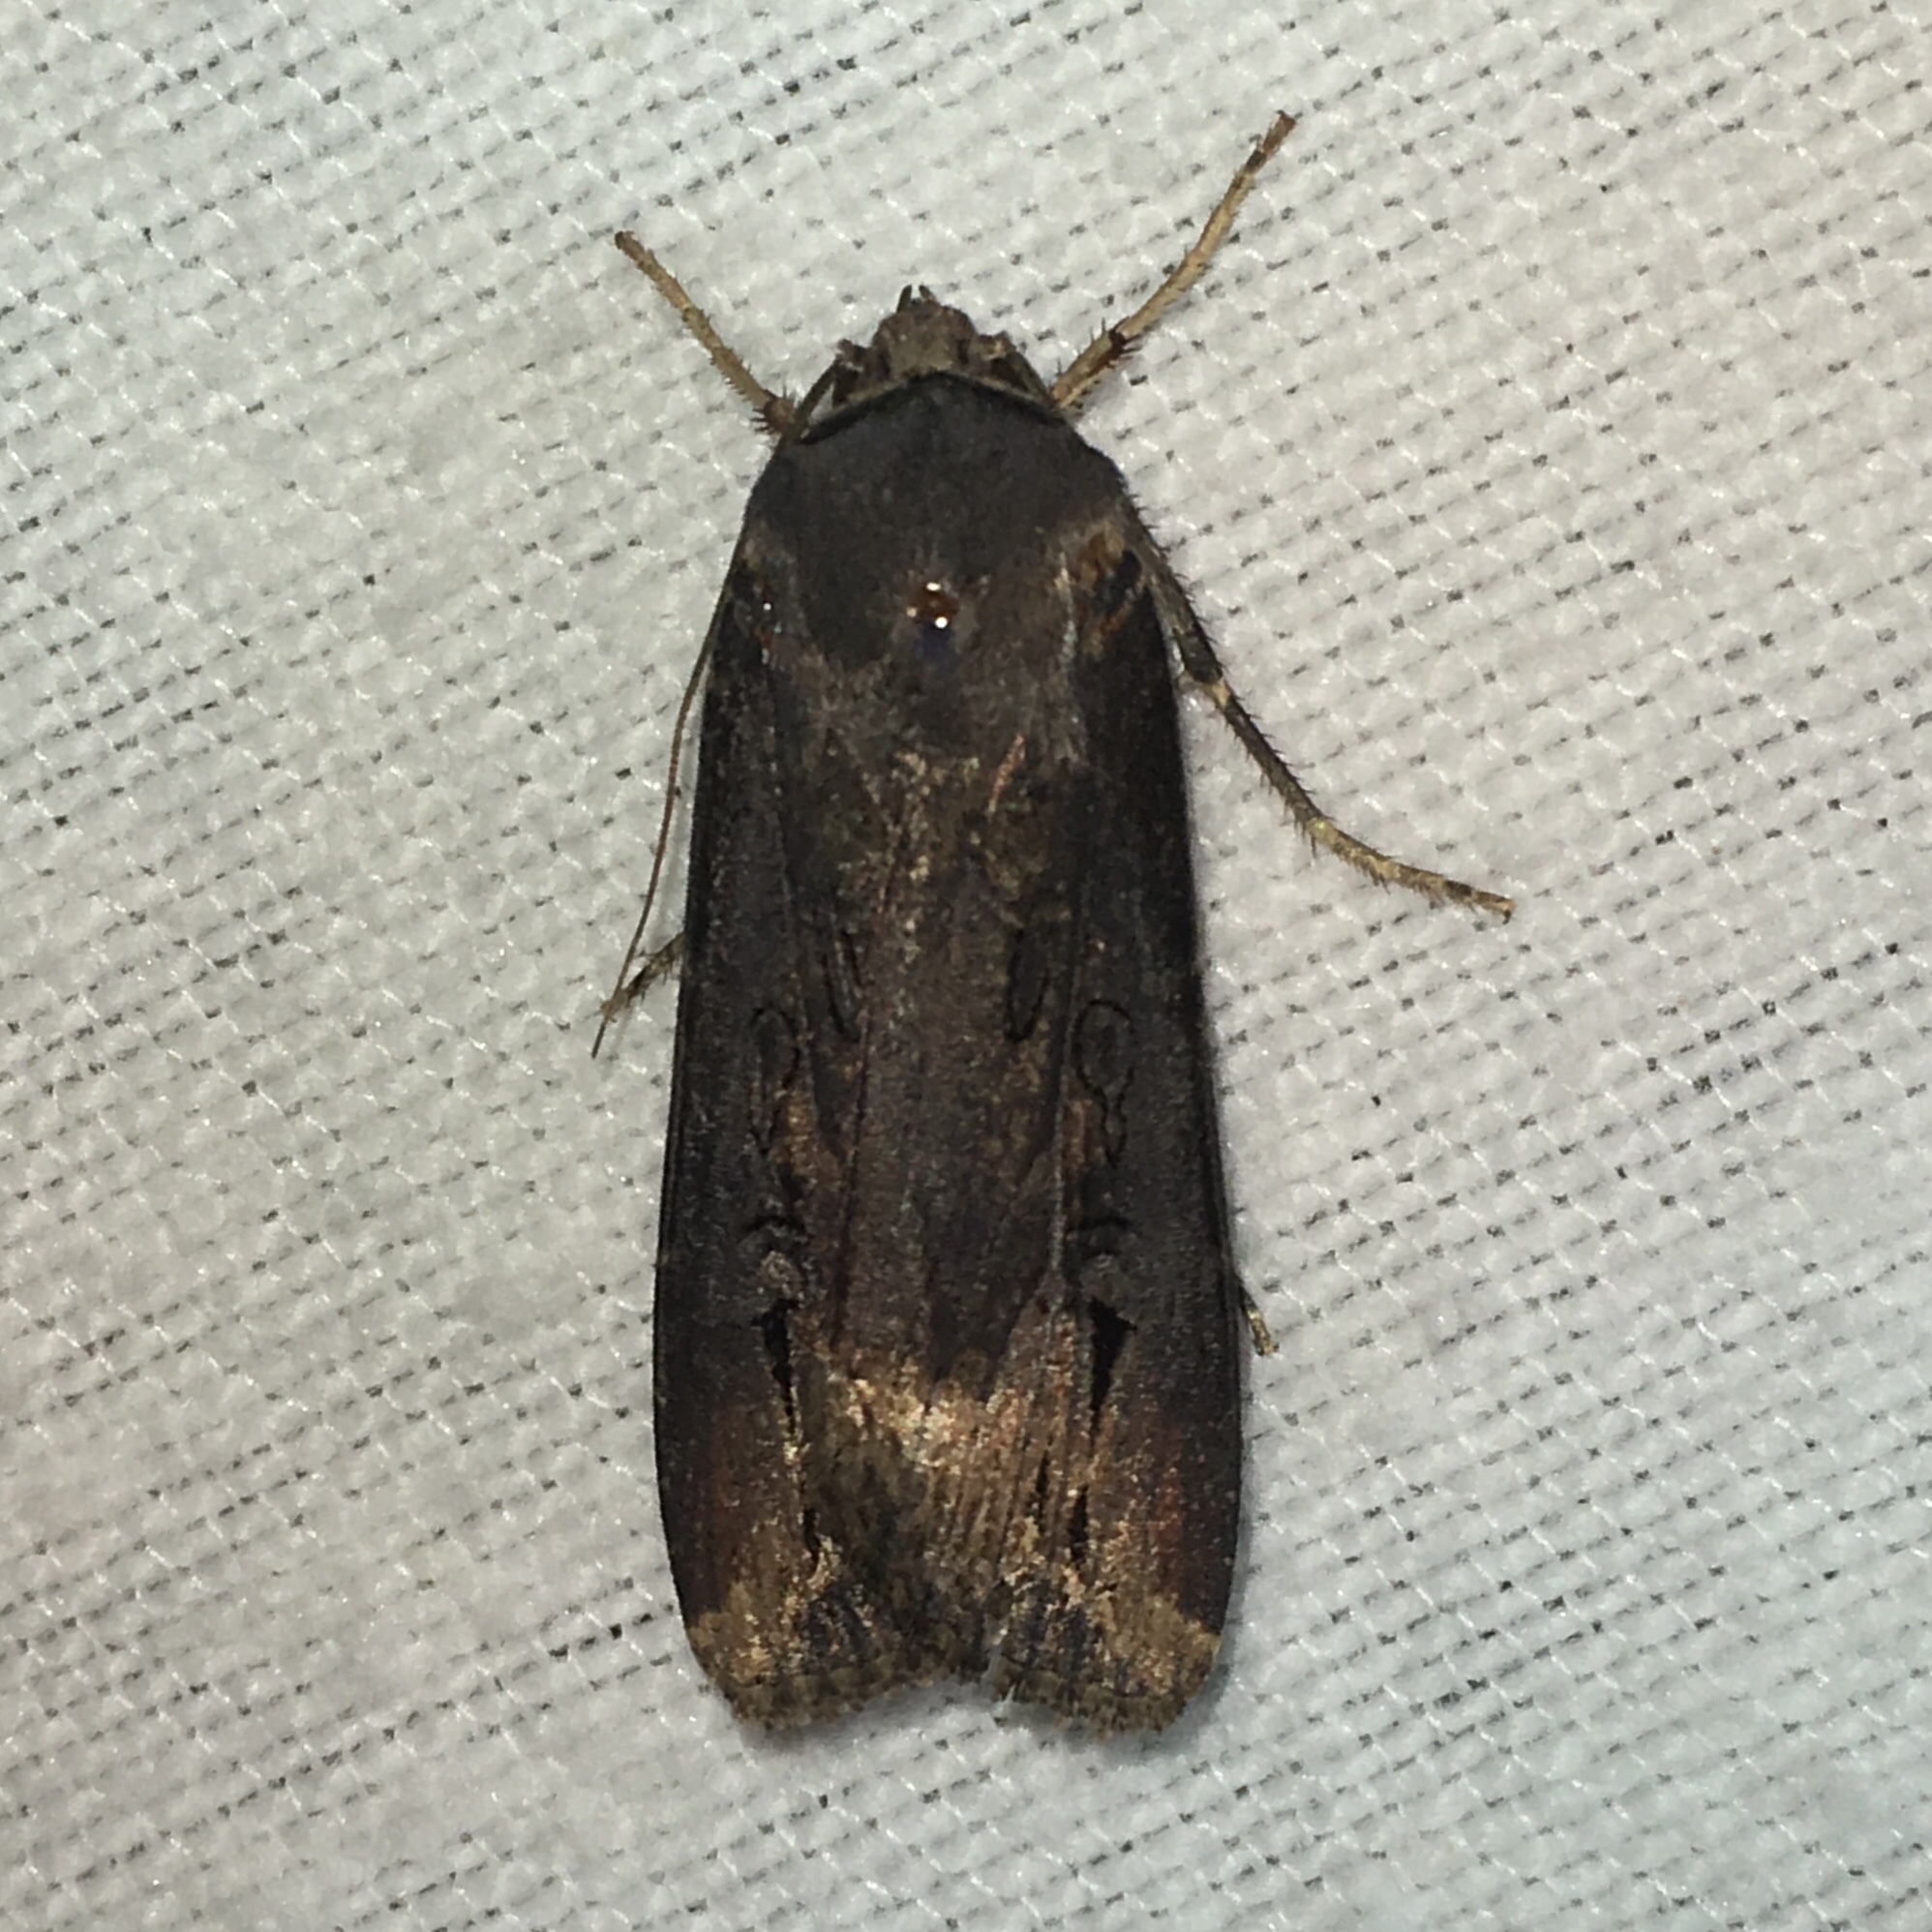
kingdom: Animalia
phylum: Arthropoda
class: Insecta
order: Lepidoptera
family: Noctuidae
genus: Agrotis
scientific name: Agrotis ipsilon
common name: Dark sword-grass
